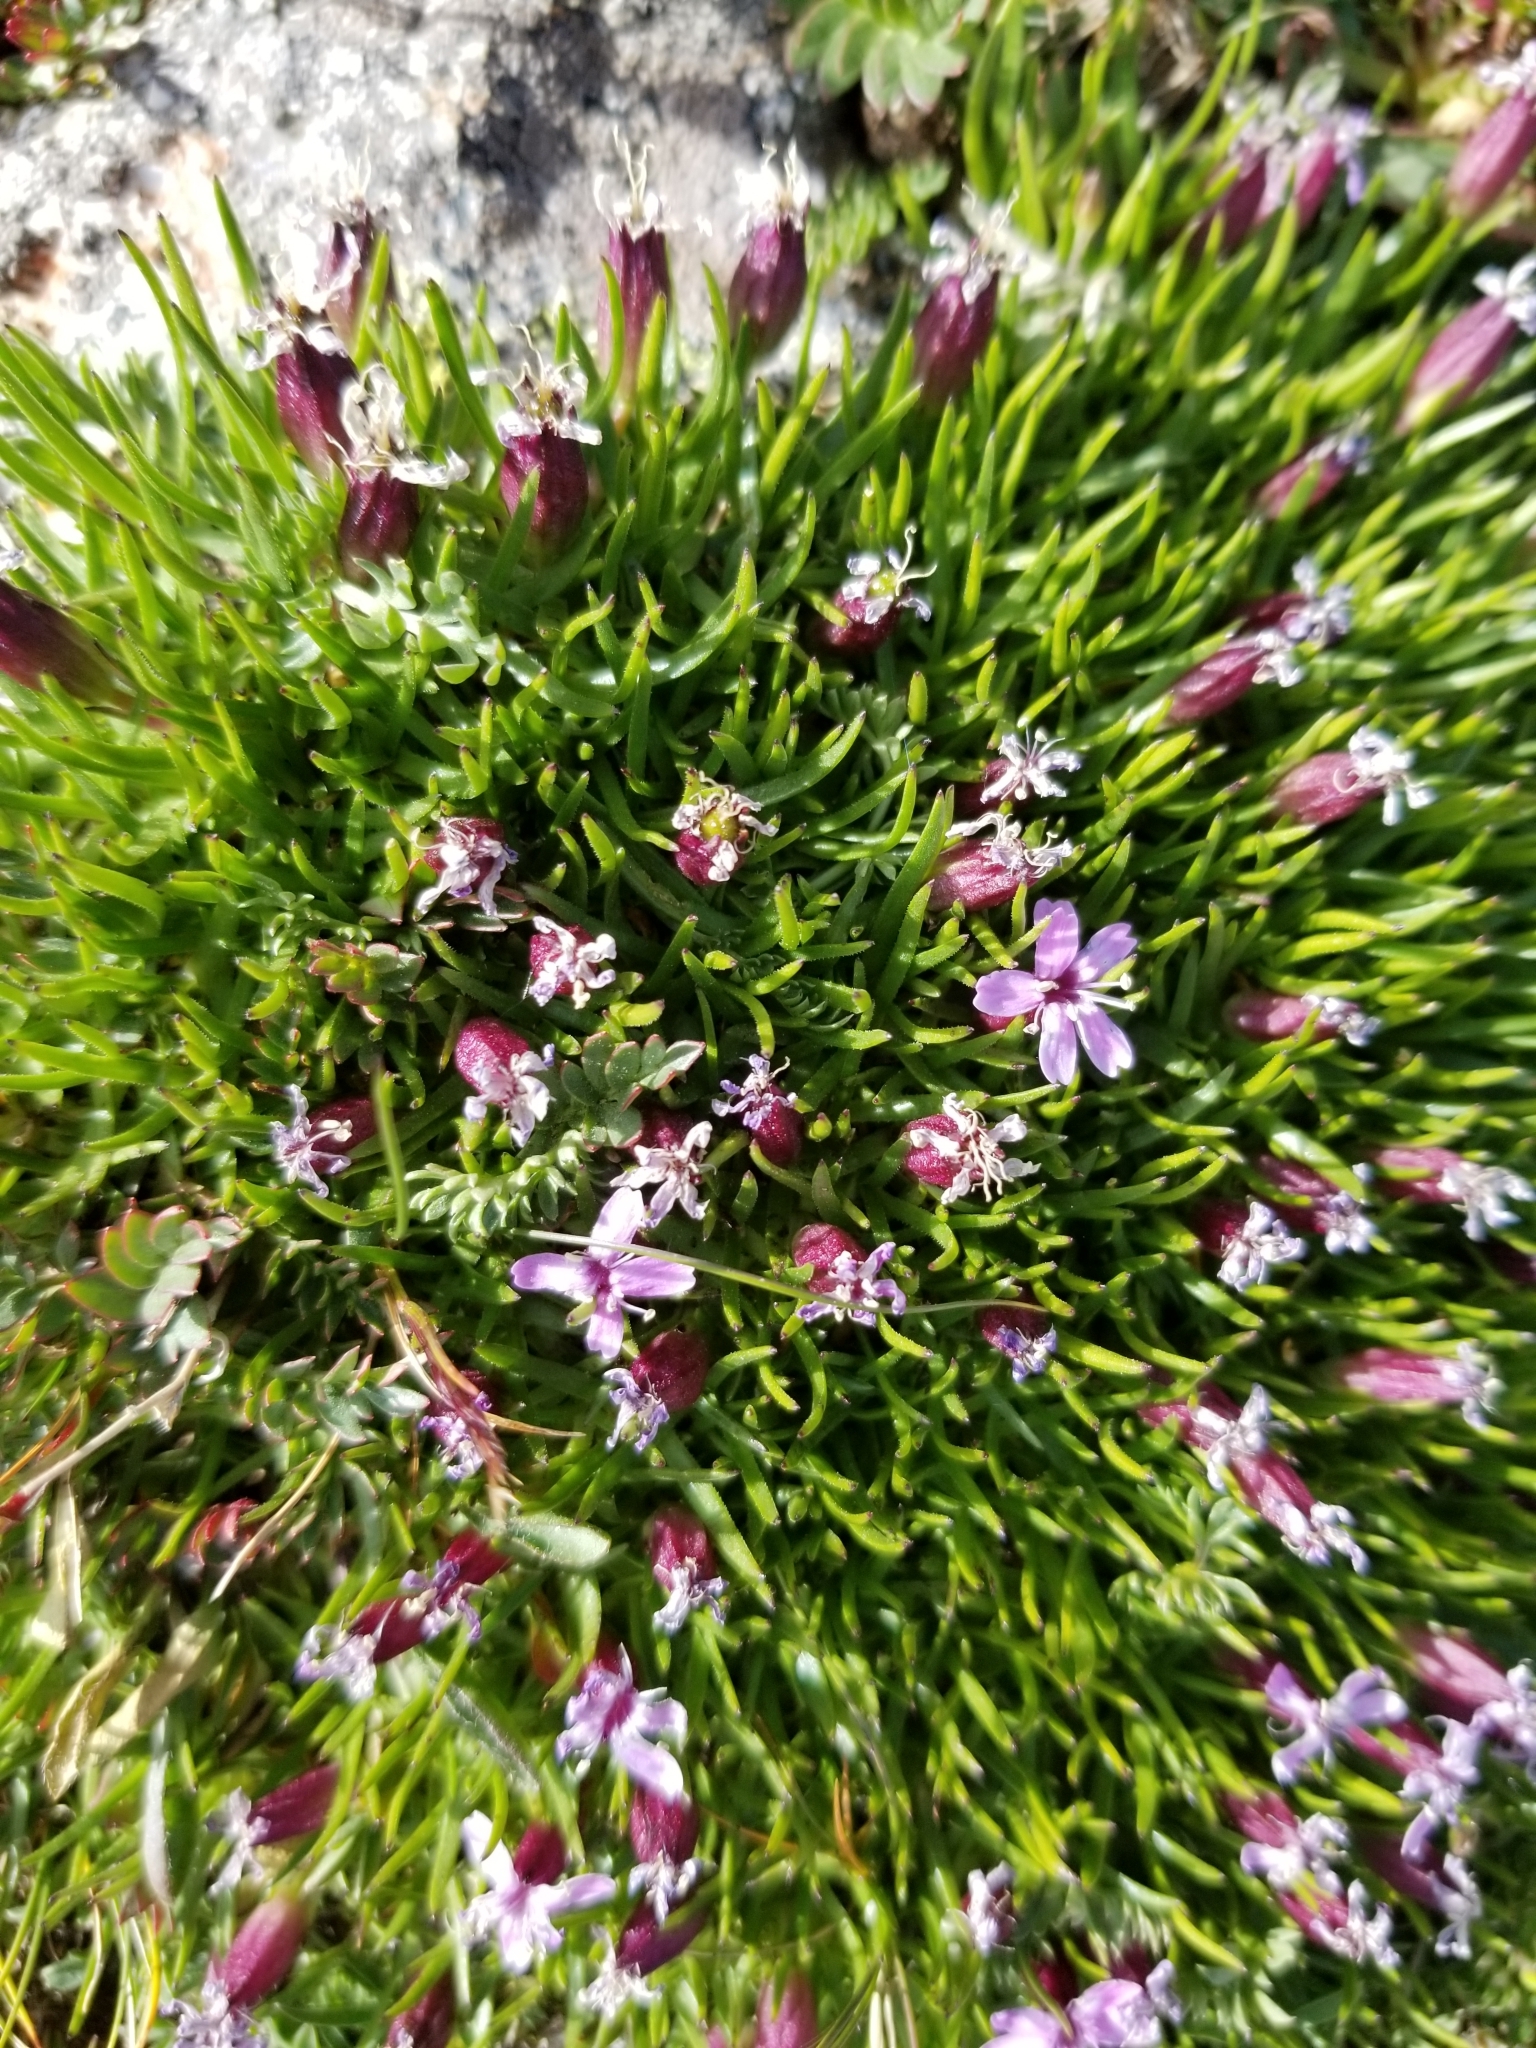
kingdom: Plantae
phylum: Tracheophyta
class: Magnoliopsida
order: Caryophyllales
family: Caryophyllaceae
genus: Silene
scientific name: Silene acaulis
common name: Moss campion
